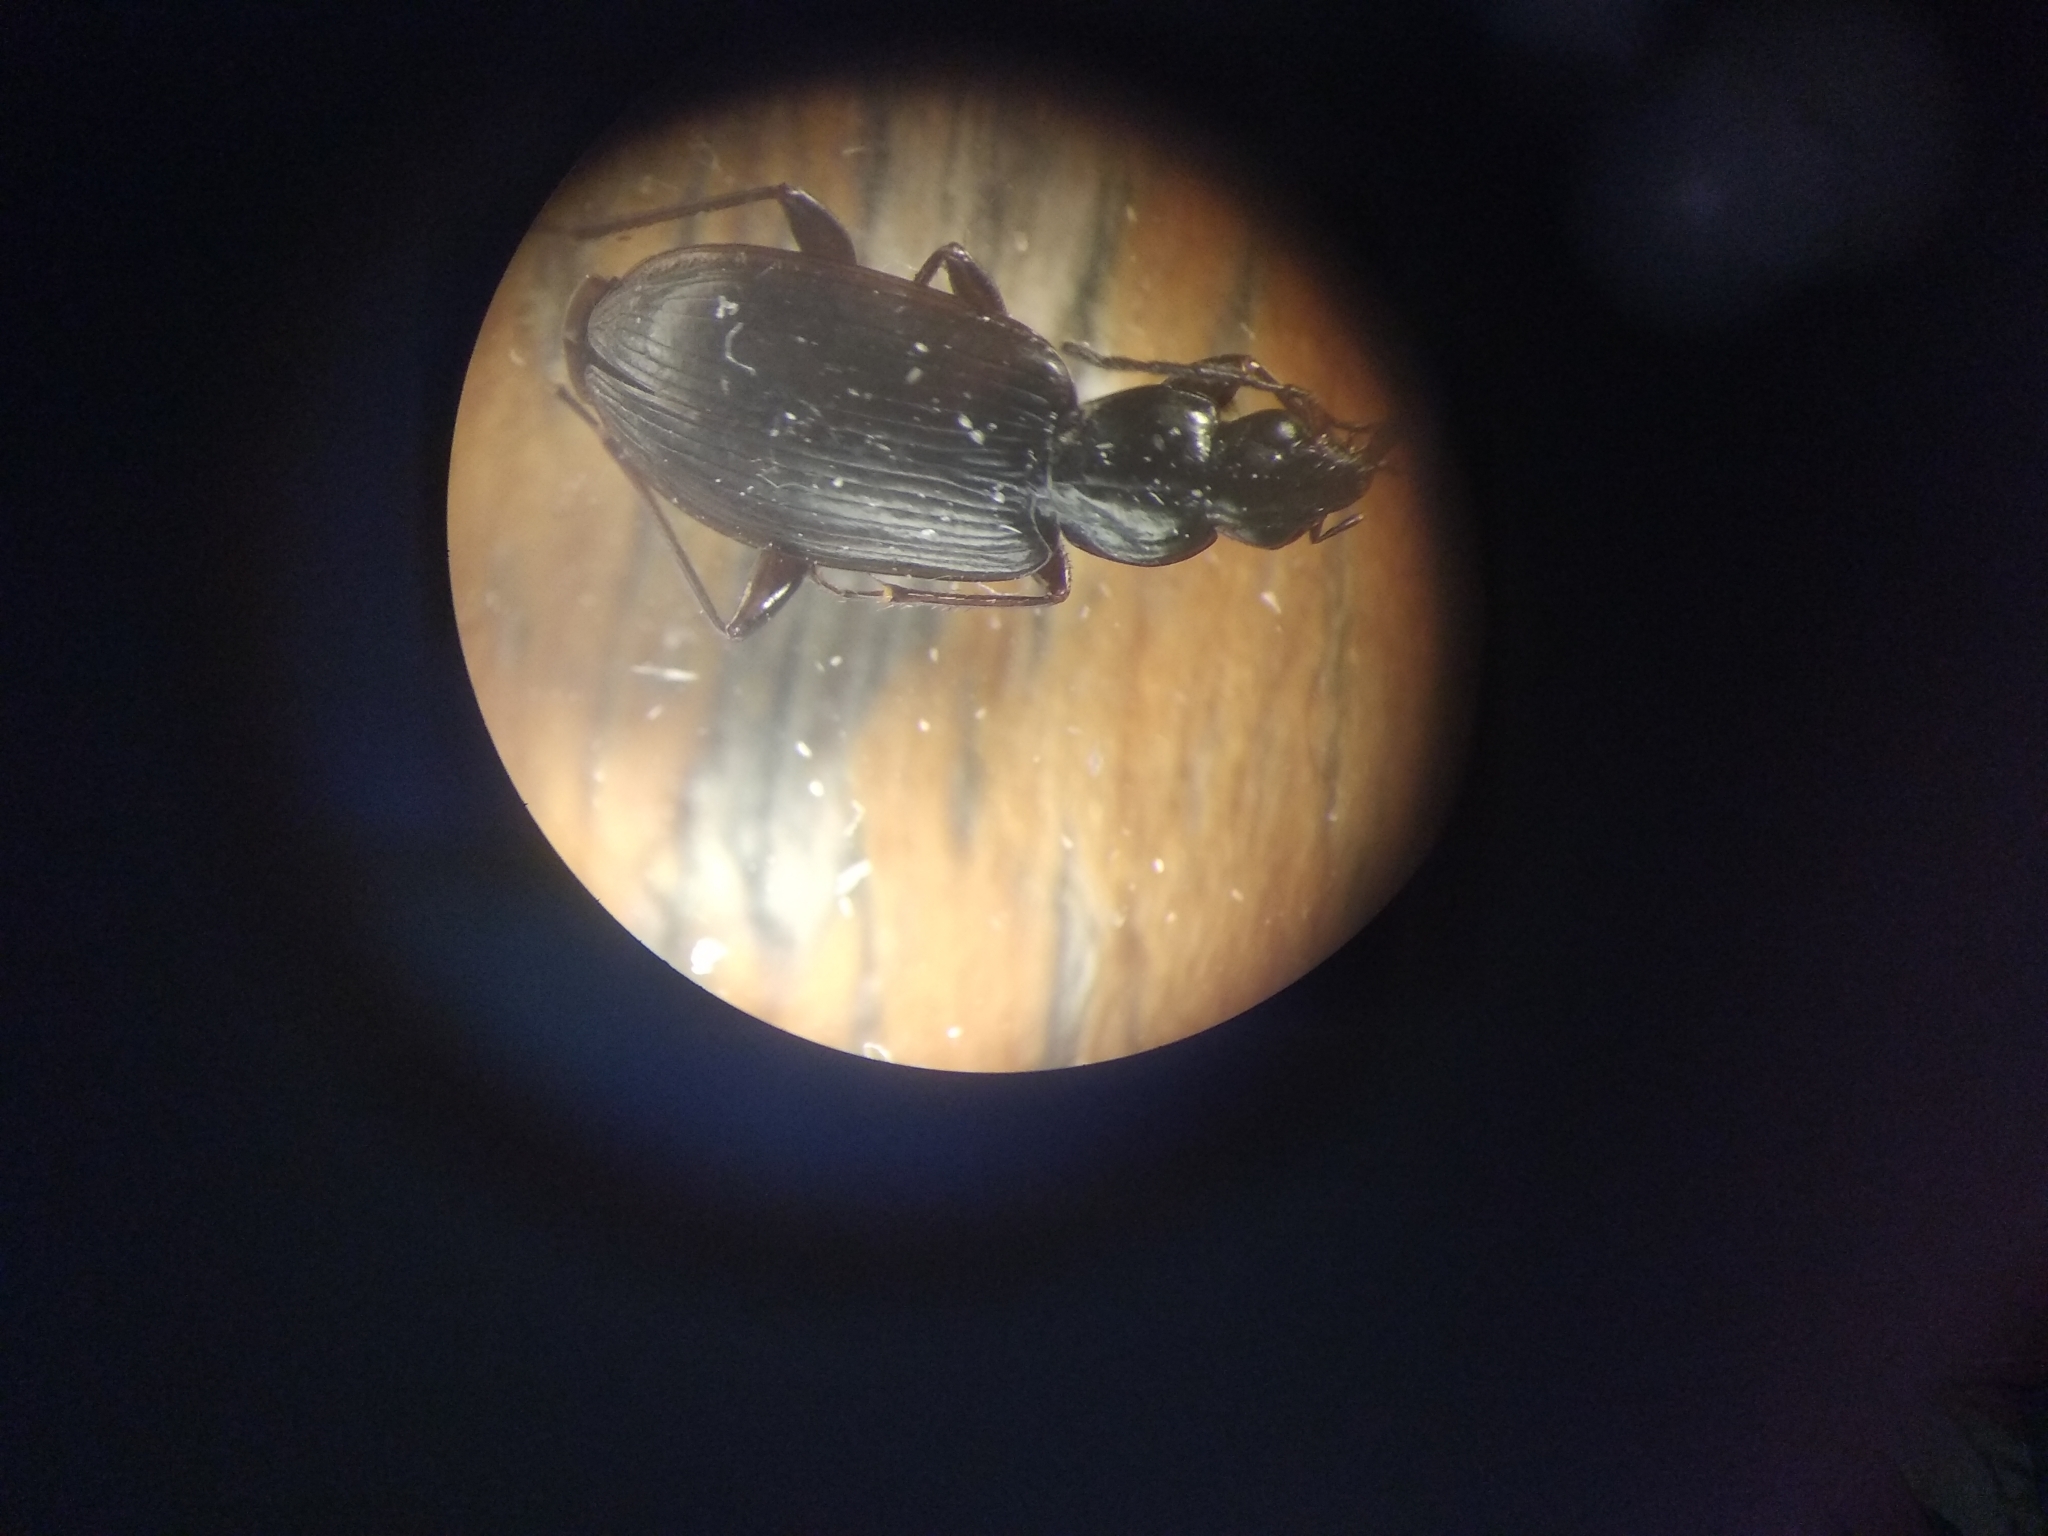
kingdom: Animalia
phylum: Arthropoda
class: Insecta
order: Coleoptera
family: Carabidae
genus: Platynus
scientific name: Platynus assimilis
